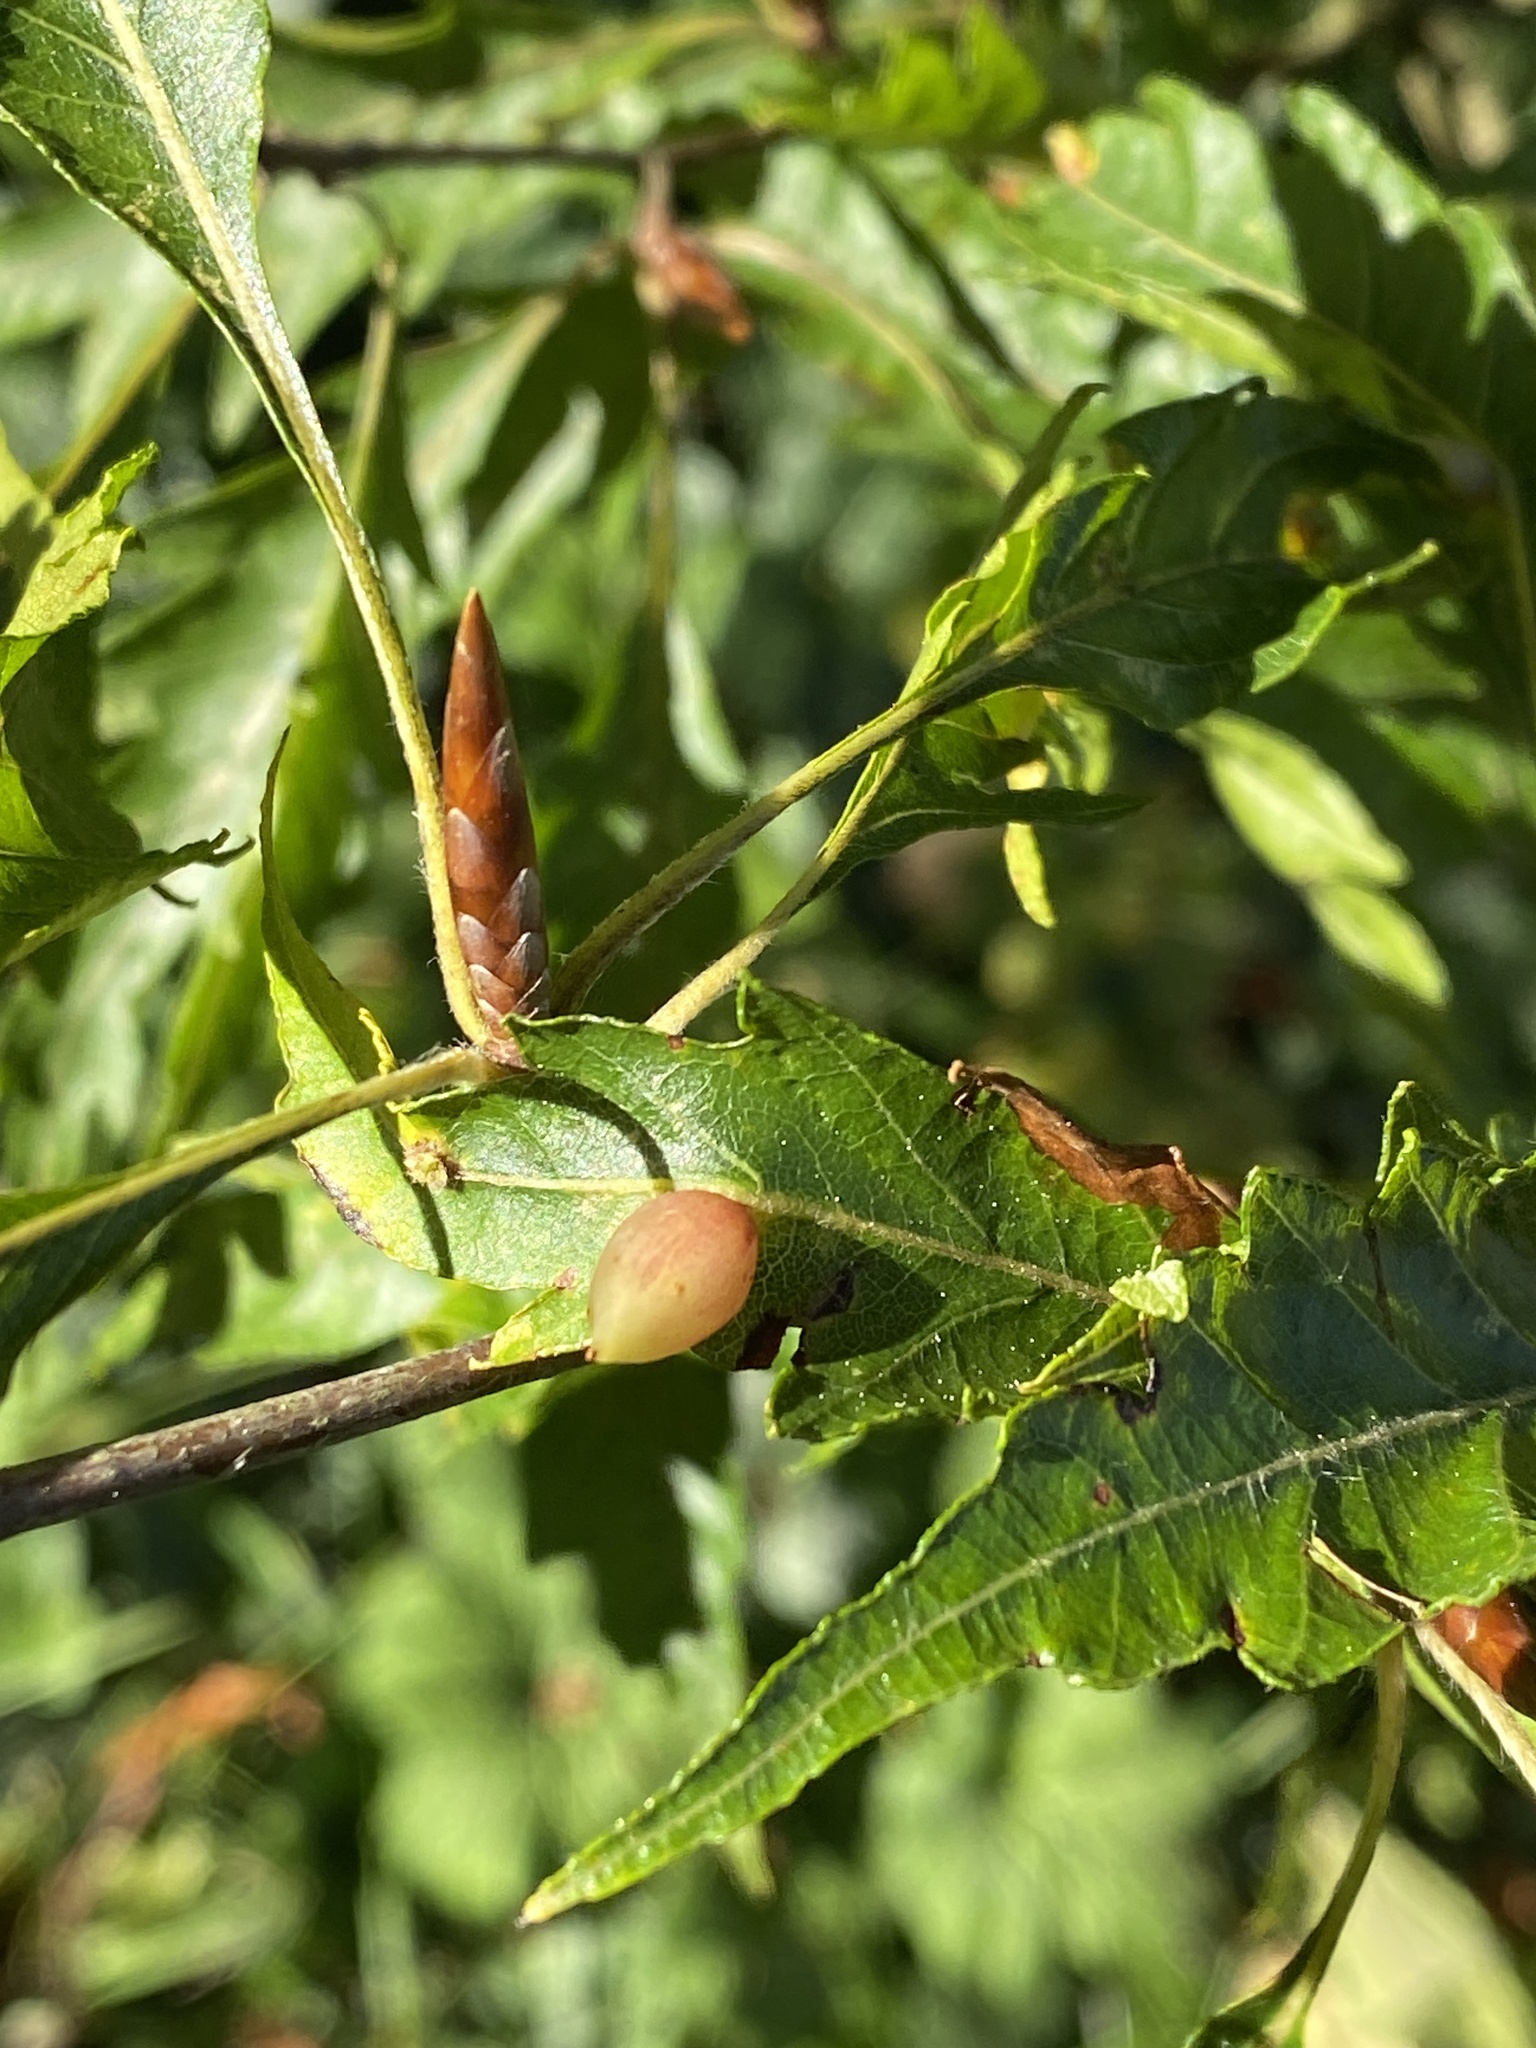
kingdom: Animalia
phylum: Arthropoda
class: Insecta
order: Diptera
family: Cecidomyiidae
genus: Mikiola
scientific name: Mikiola fagi
